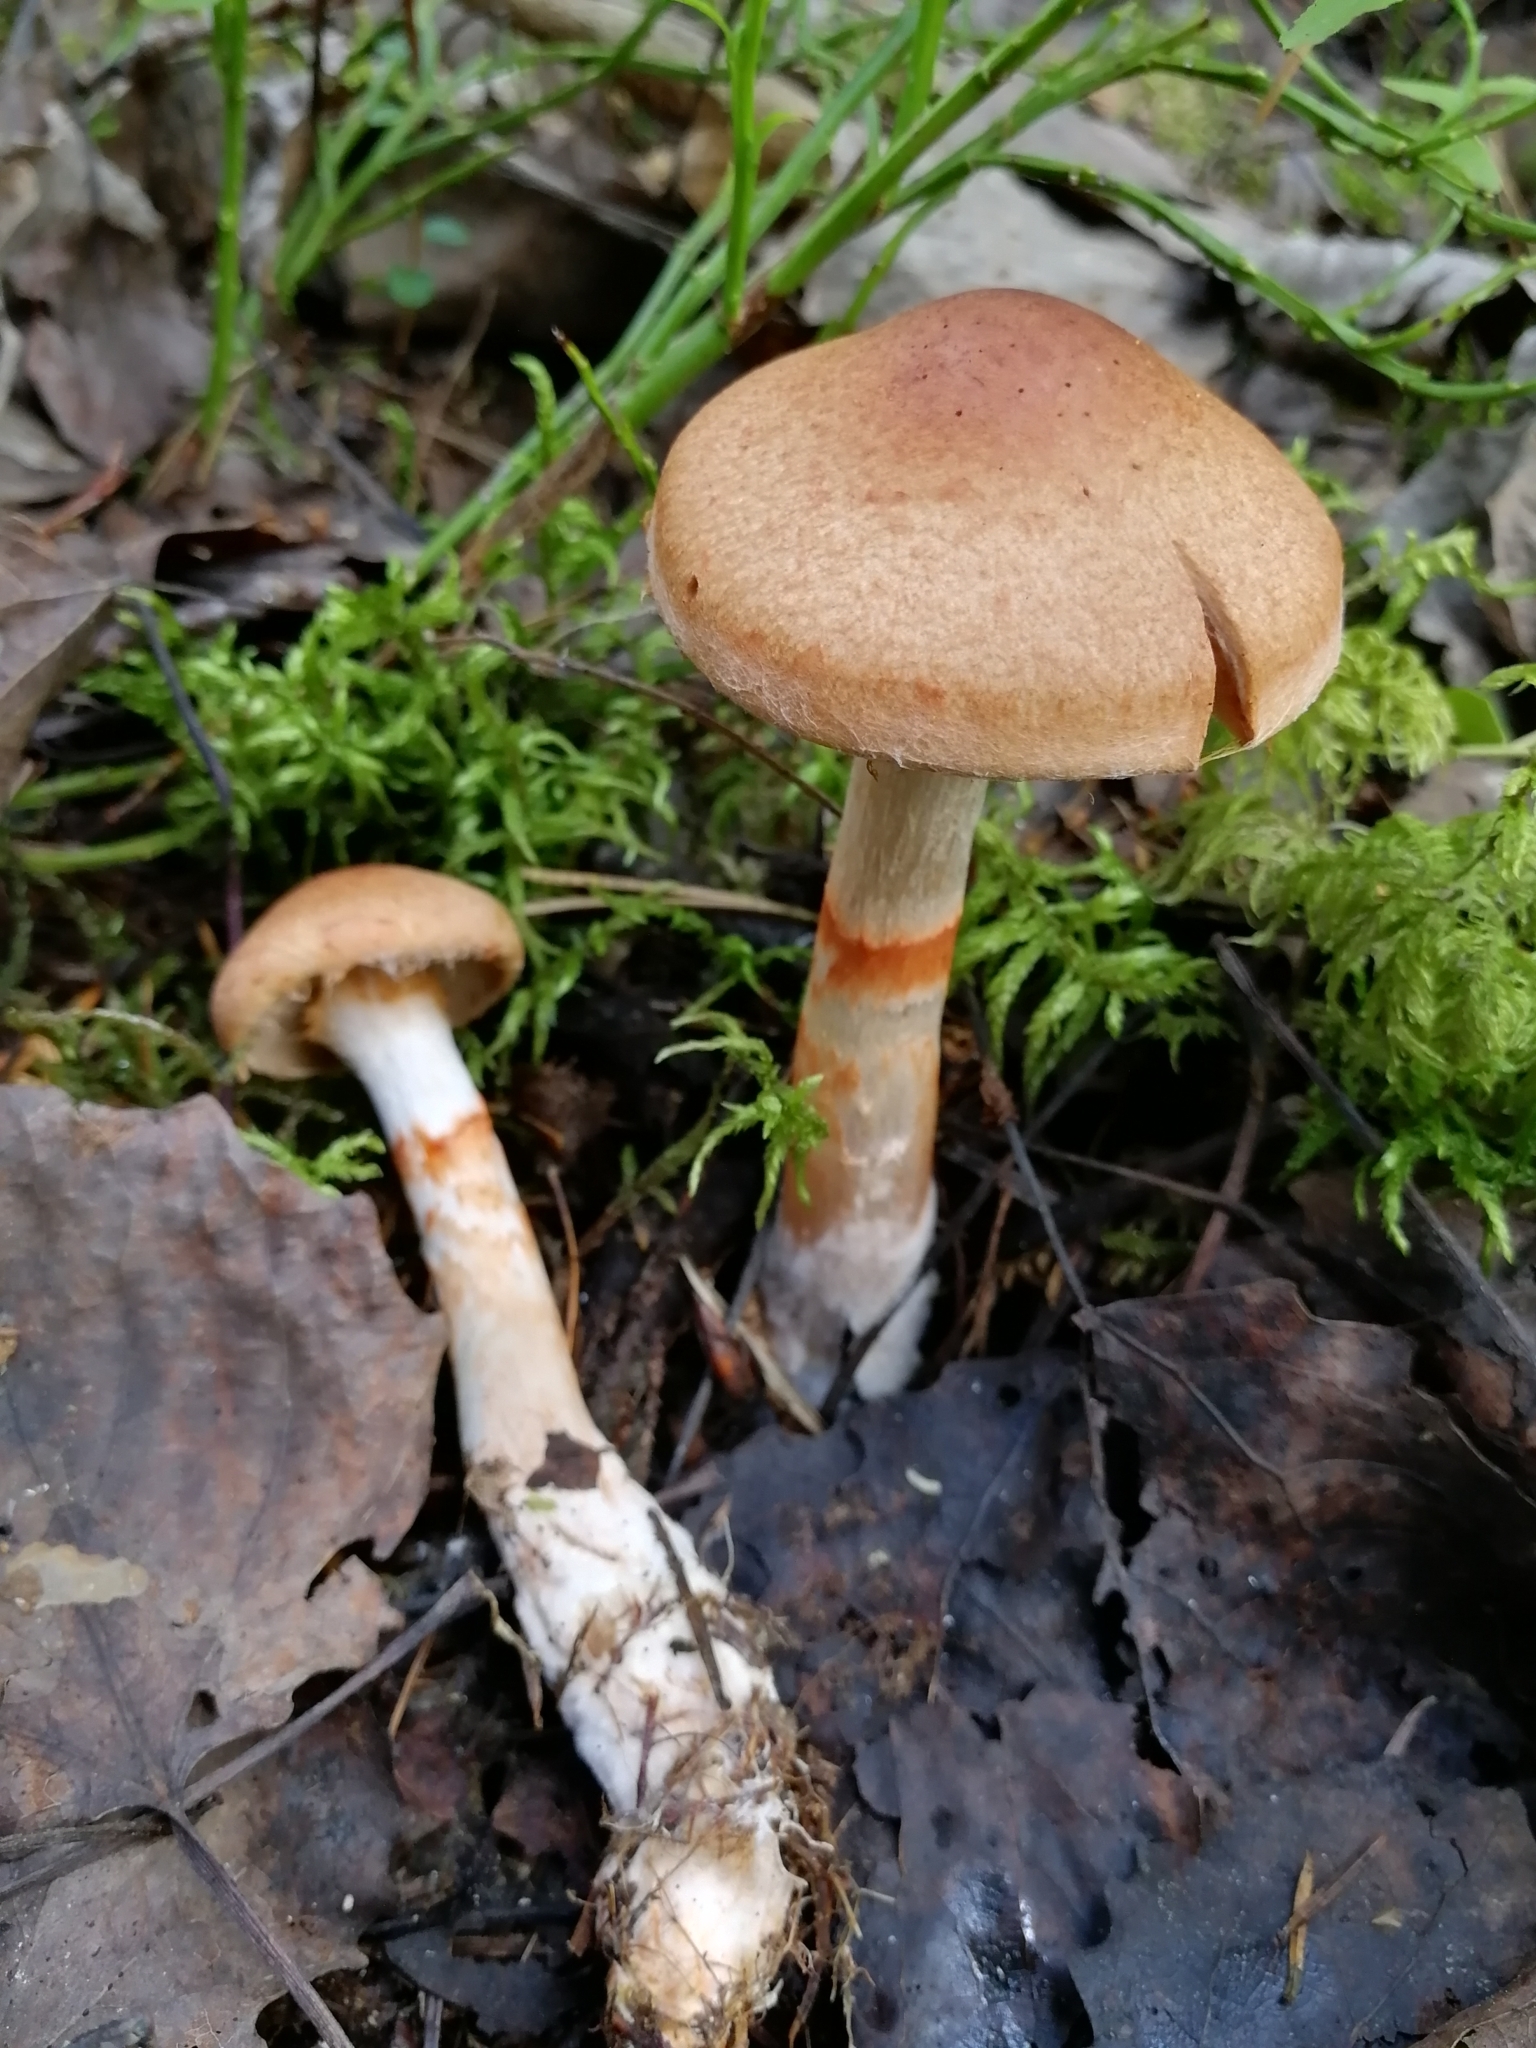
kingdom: Fungi
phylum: Basidiomycota
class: Agaricomycetes
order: Agaricales
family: Cortinariaceae
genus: Cortinarius
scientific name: Cortinarius armillatus
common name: Red banded webcap
